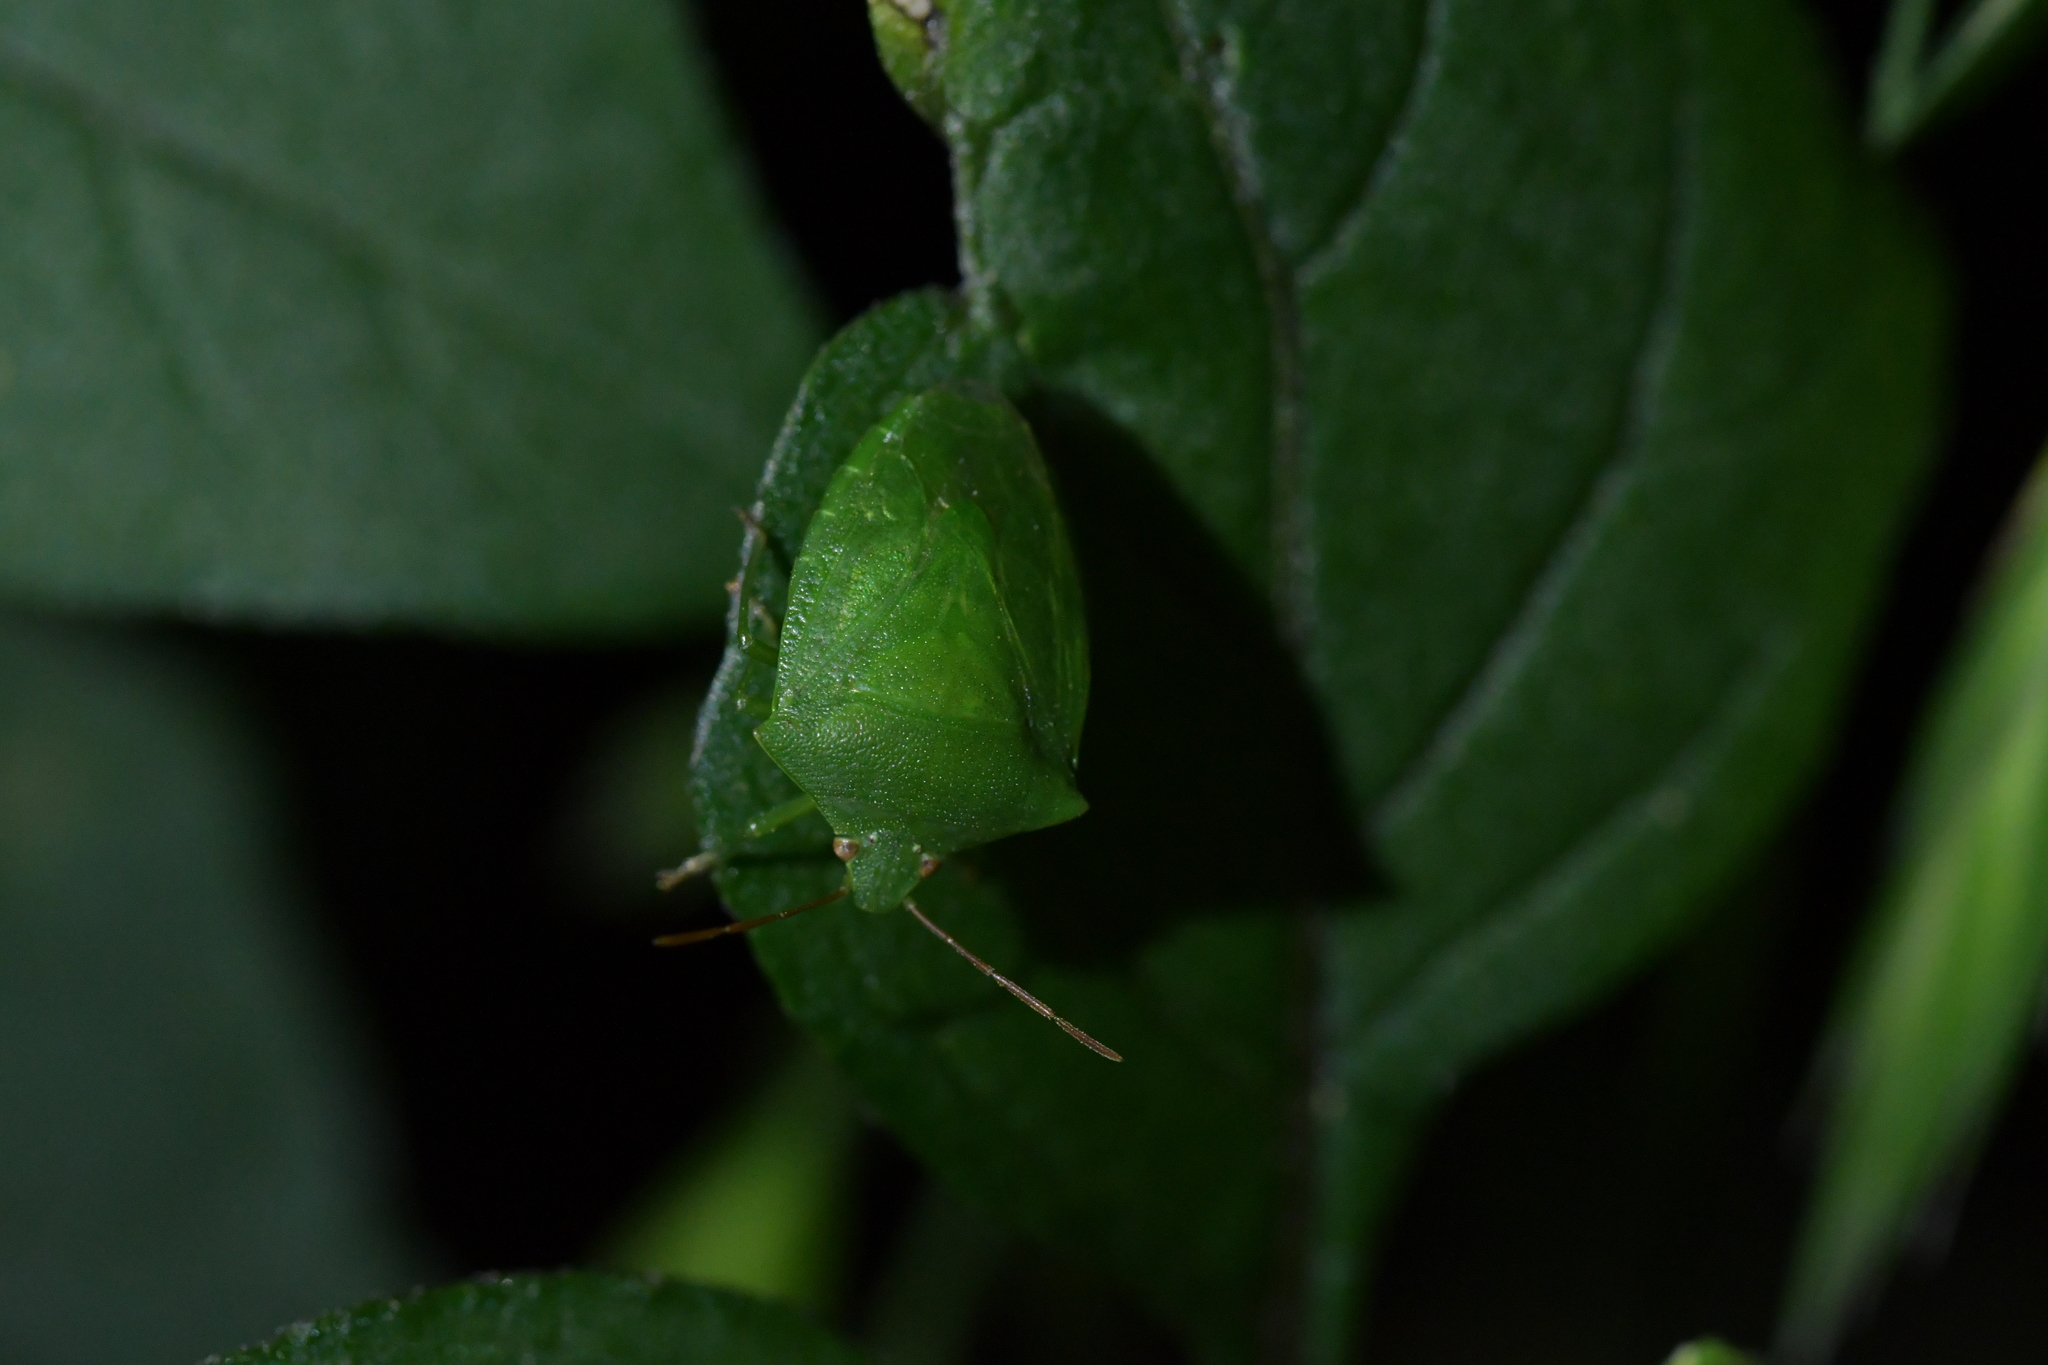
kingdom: Animalia
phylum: Arthropoda
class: Insecta
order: Hemiptera
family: Pentatomidae
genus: Cuspicona
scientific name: Cuspicona simplex
